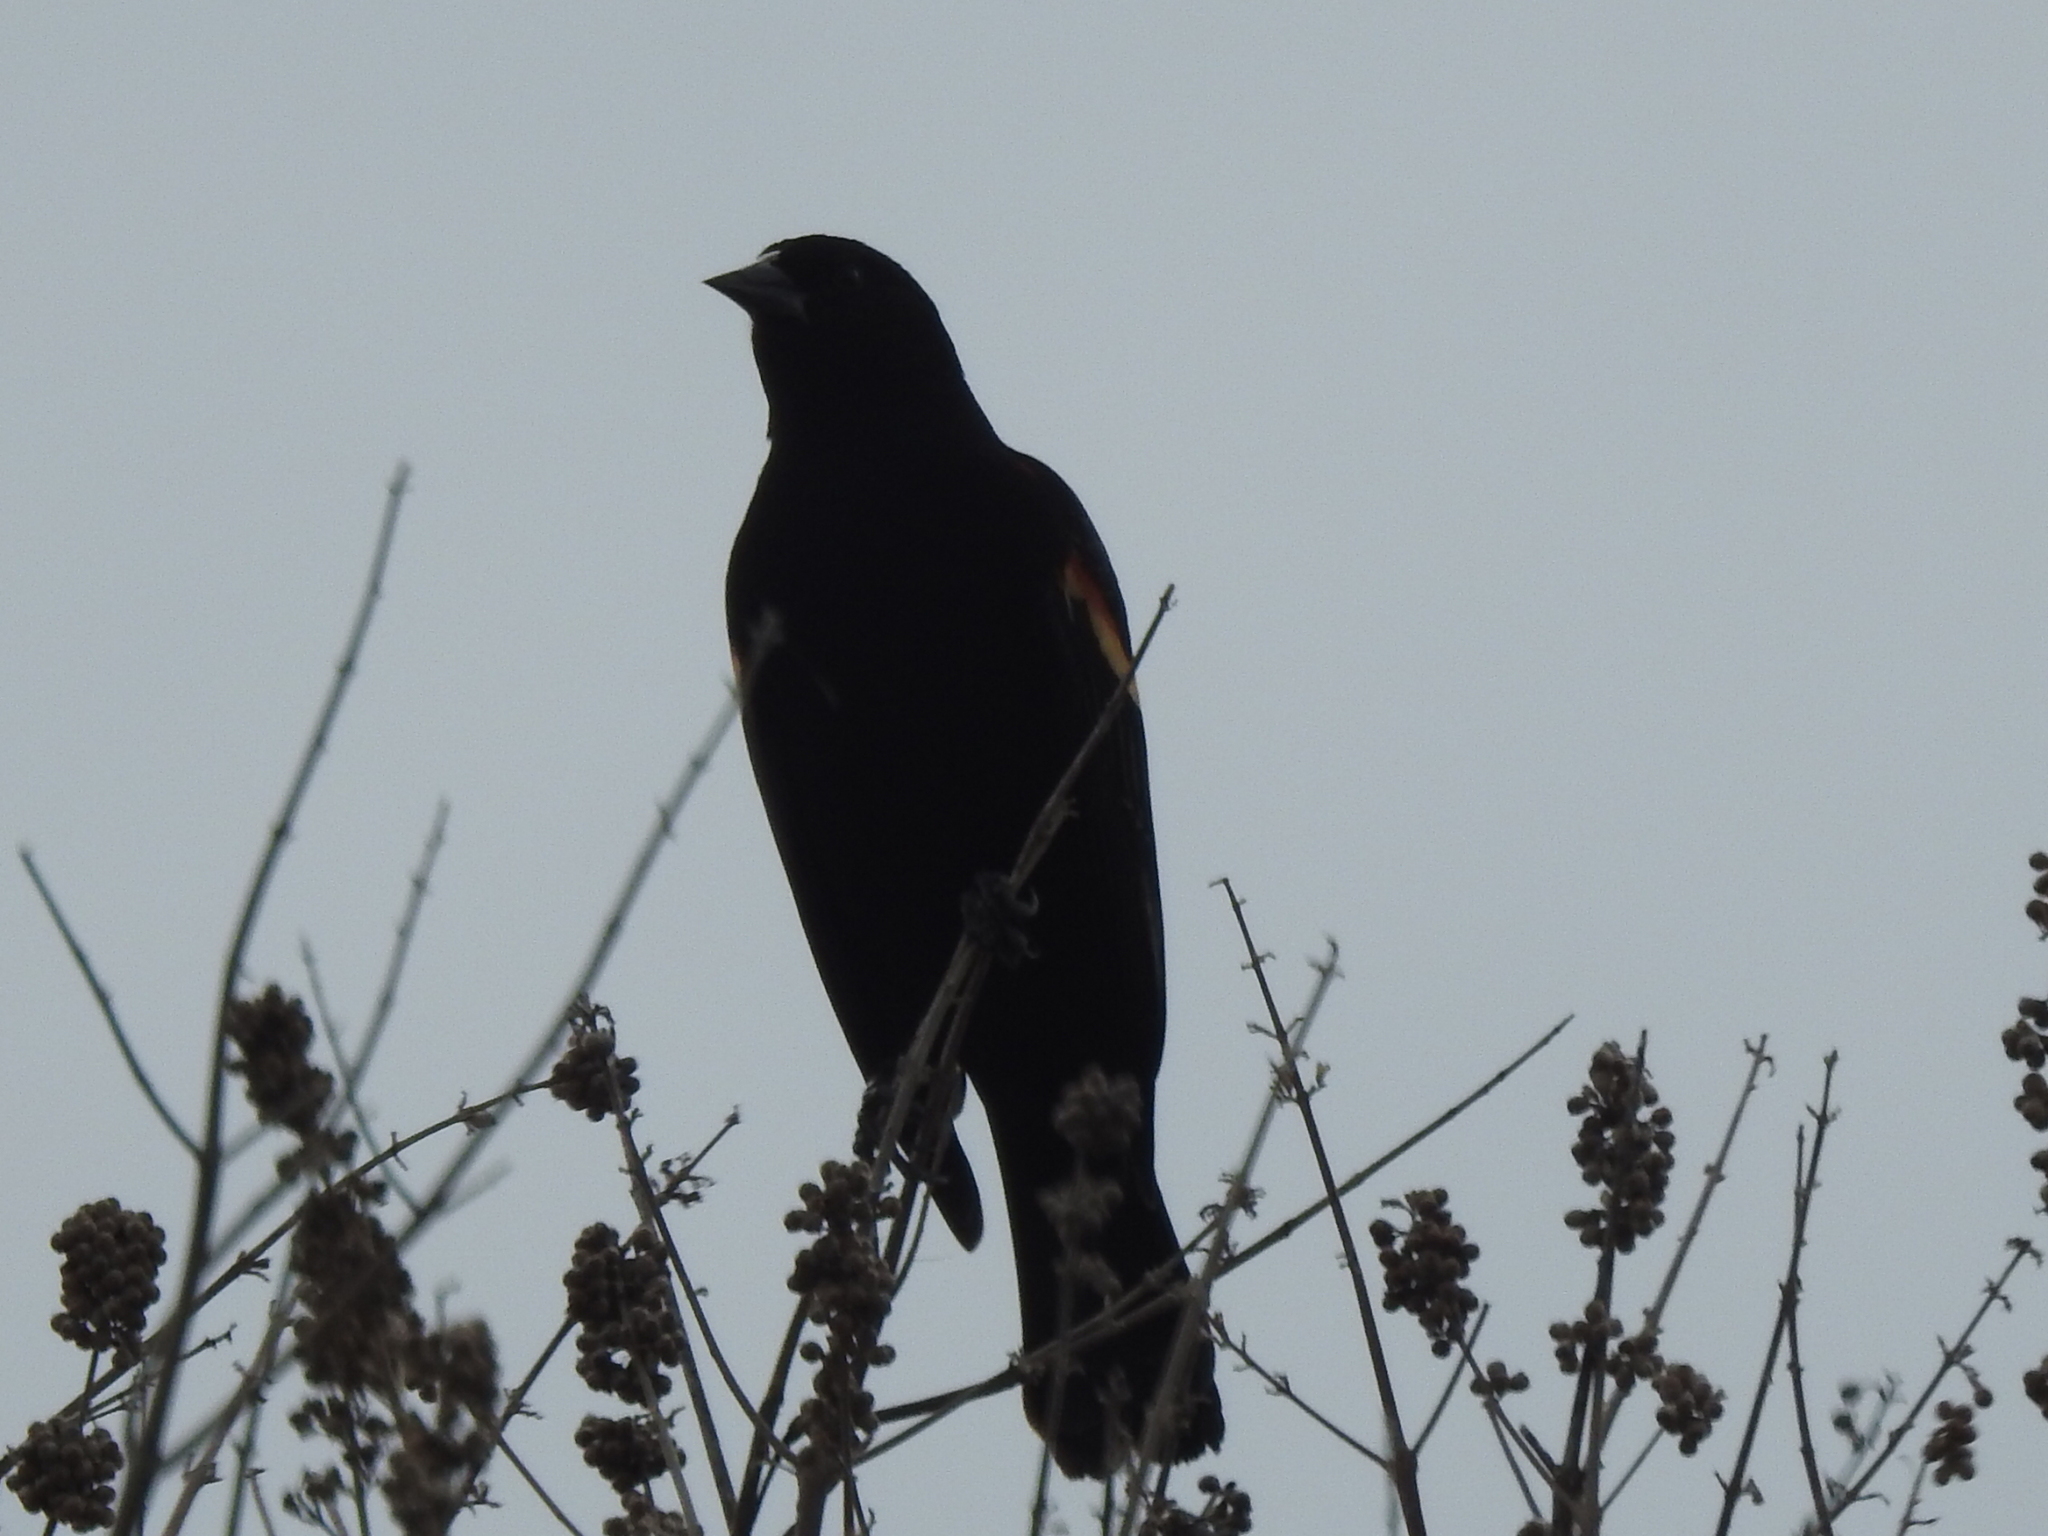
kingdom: Animalia
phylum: Chordata
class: Aves
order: Passeriformes
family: Icteridae
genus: Agelaius
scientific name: Agelaius phoeniceus
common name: Red-winged blackbird
